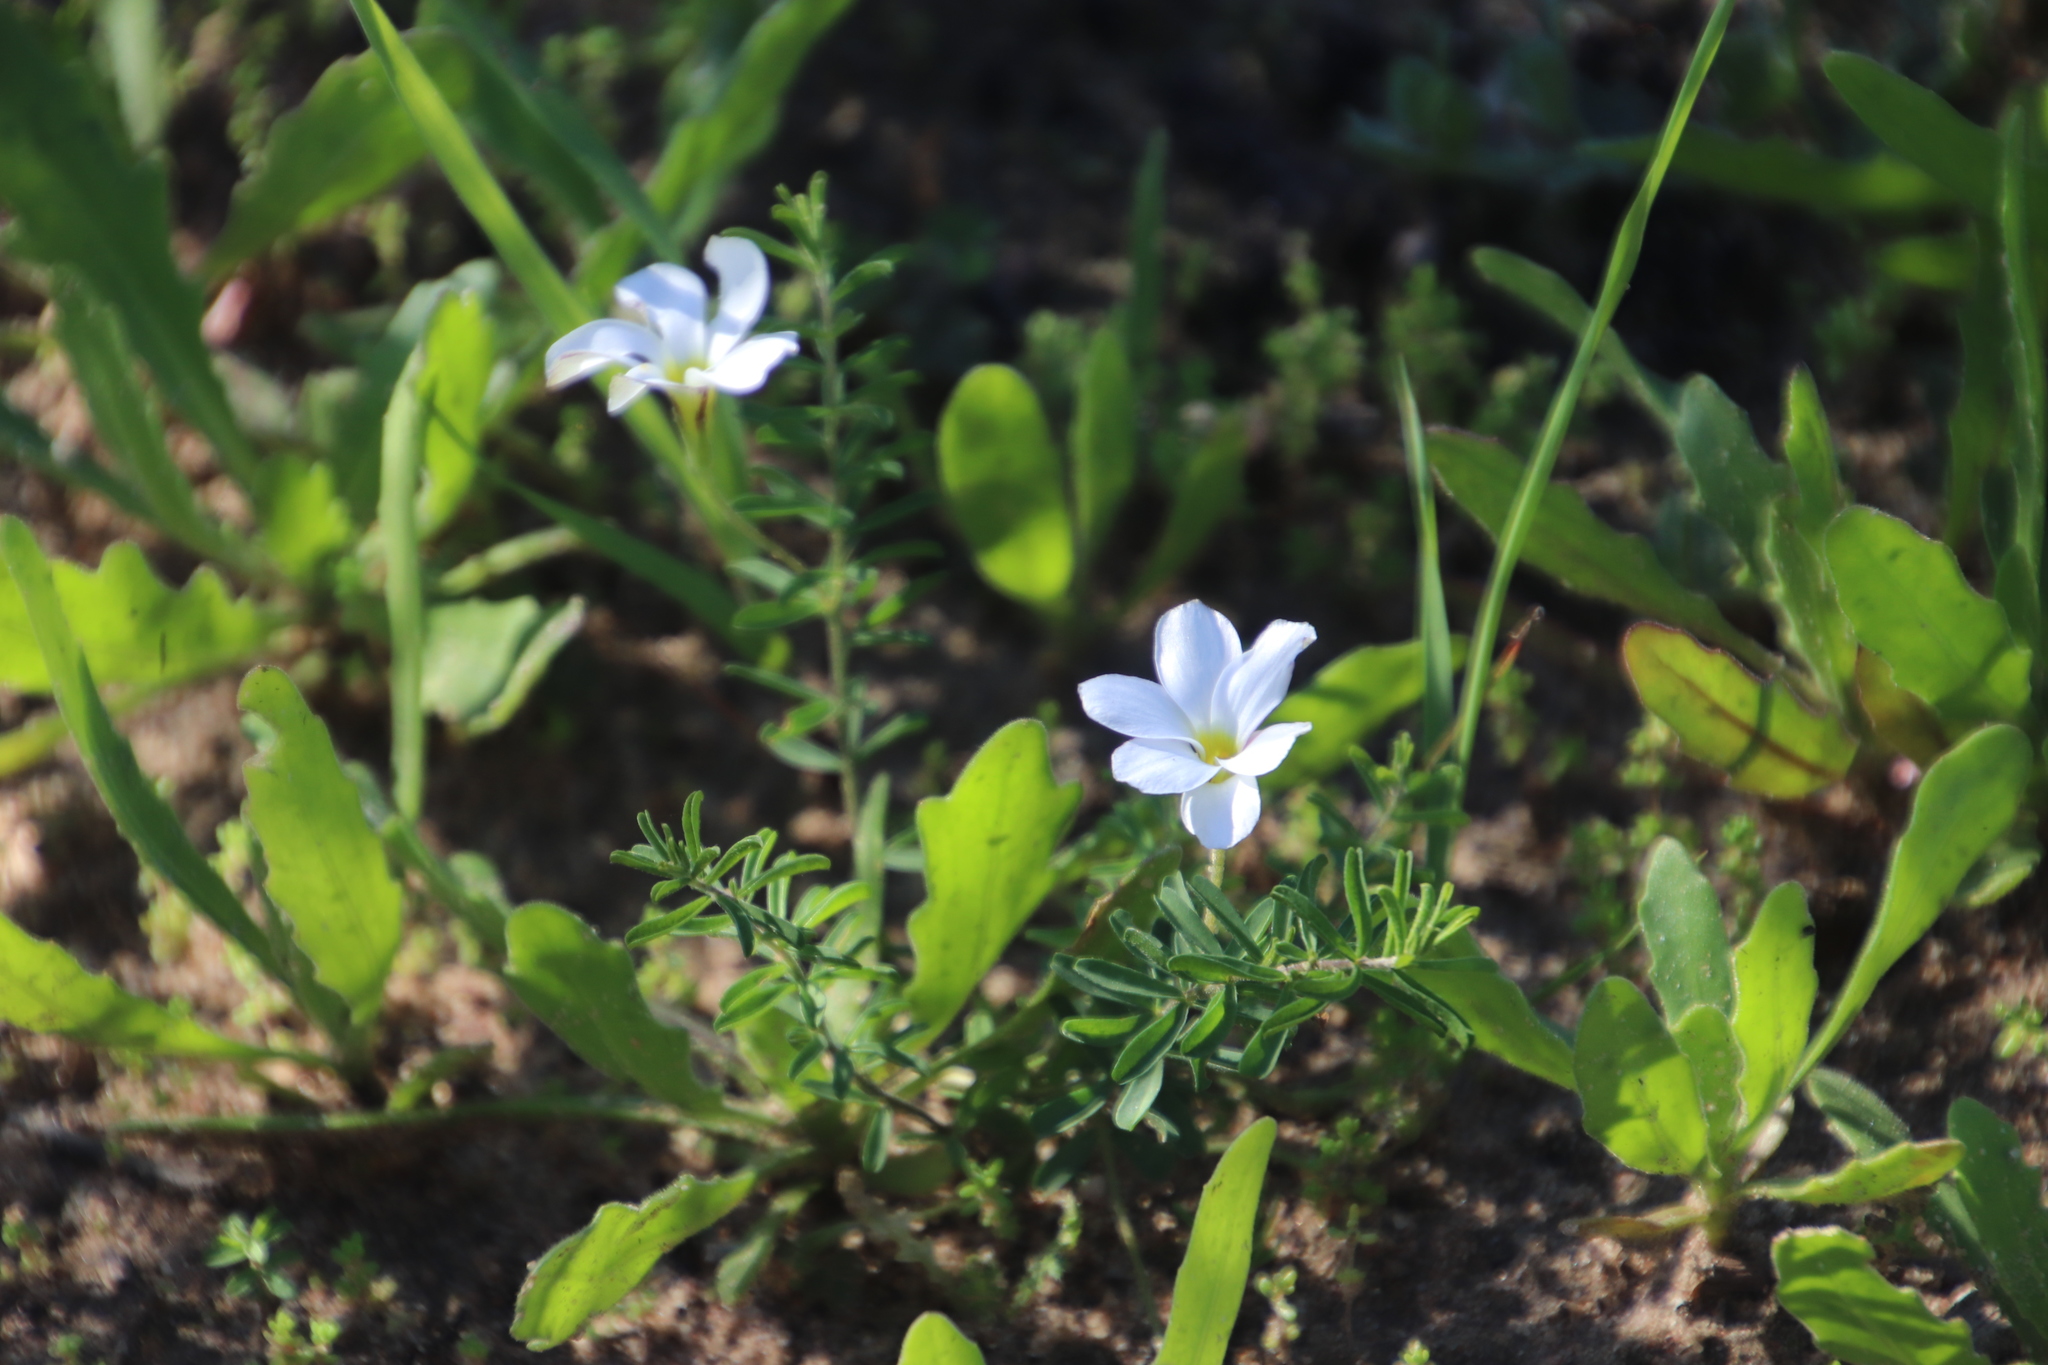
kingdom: Plantae
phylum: Tracheophyta
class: Magnoliopsida
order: Oxalidales
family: Oxalidaceae
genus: Oxalis
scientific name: Oxalis hirta
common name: Tropical woodsorrel
